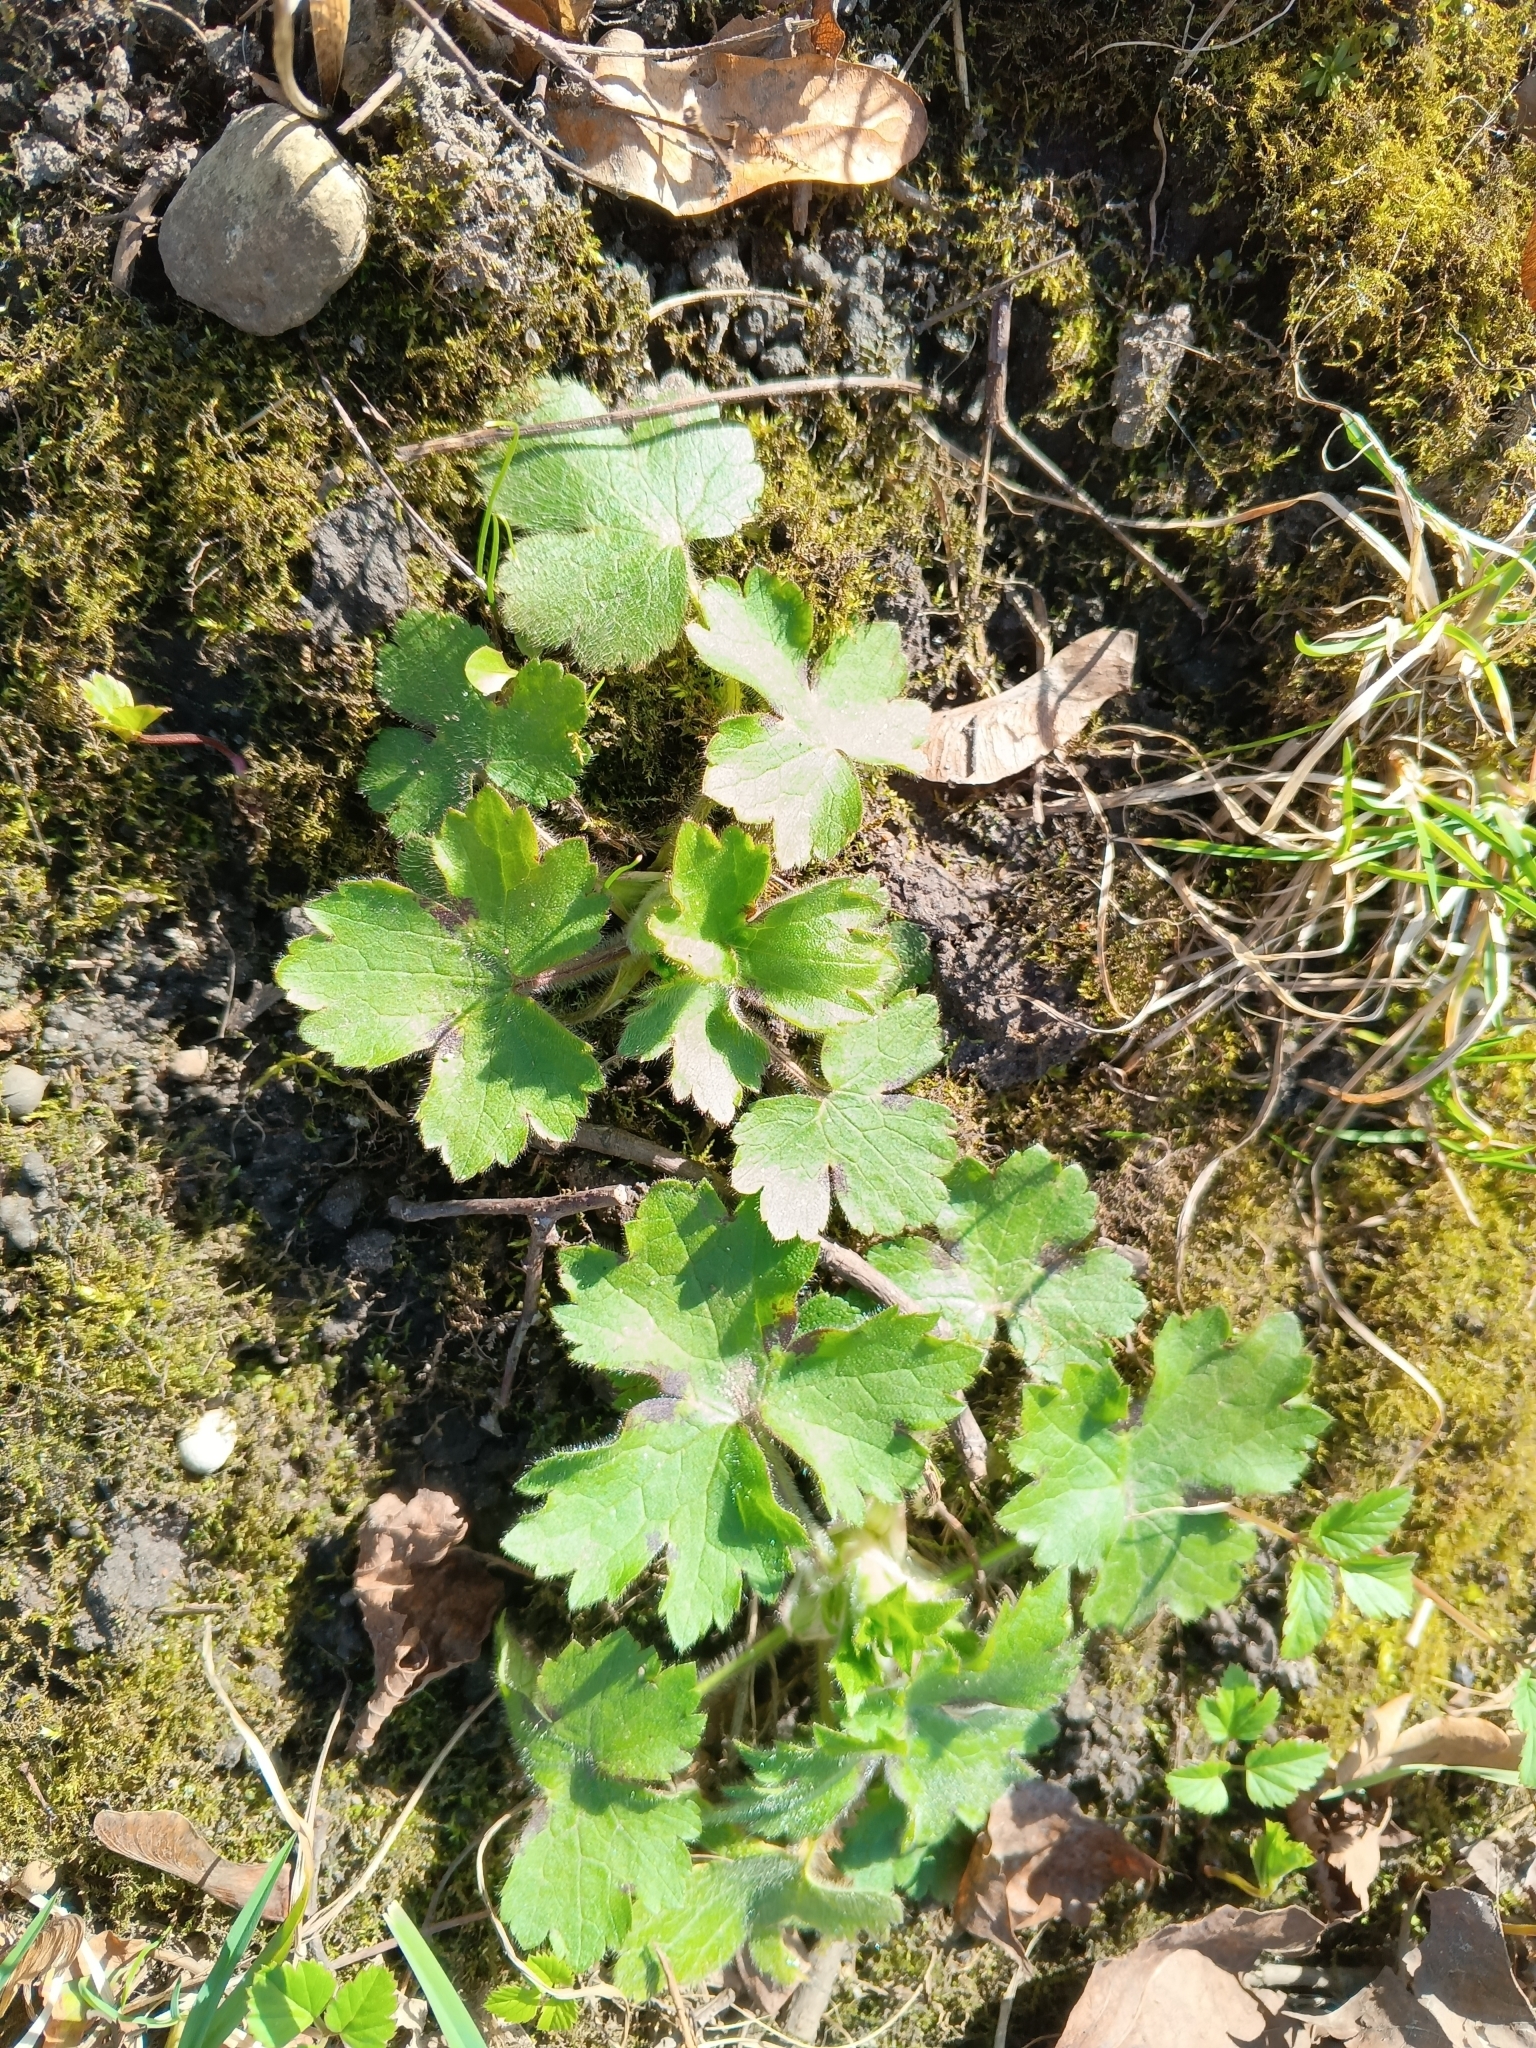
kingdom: Plantae
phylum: Tracheophyta
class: Magnoliopsida
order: Ranunculales
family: Ranunculaceae
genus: Ranunculus
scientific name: Ranunculus lanuginosus
